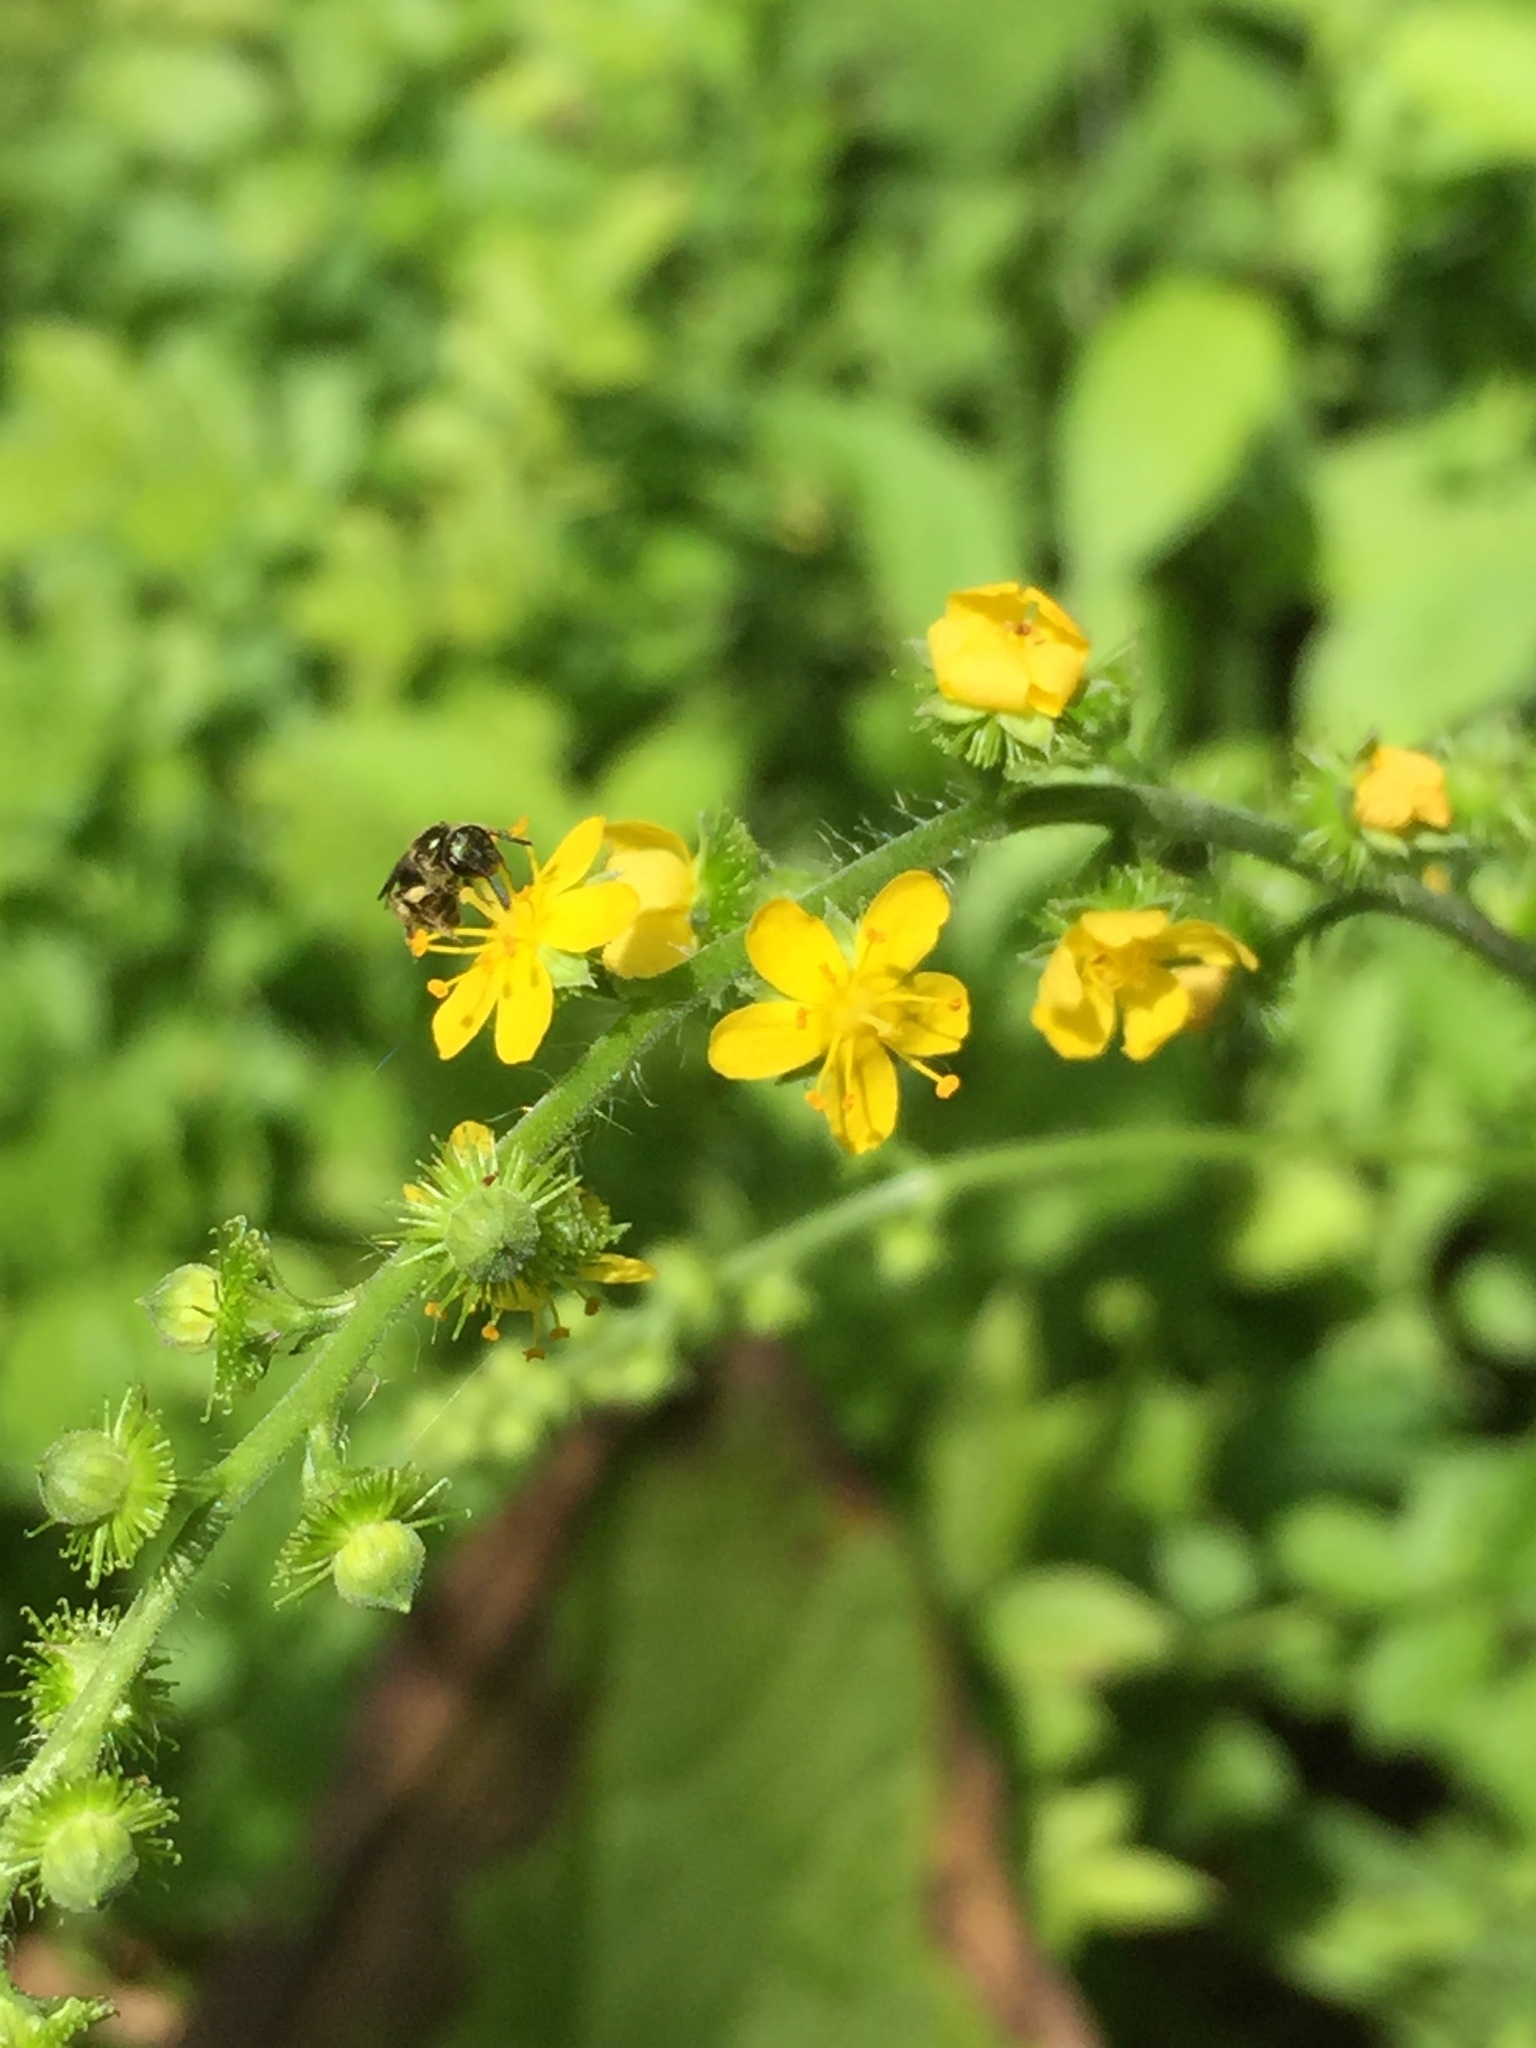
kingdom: Plantae
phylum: Tracheophyta
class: Magnoliopsida
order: Rosales
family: Rosaceae
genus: Agrimonia
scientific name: Agrimonia gryposepala
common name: Common agrimony
